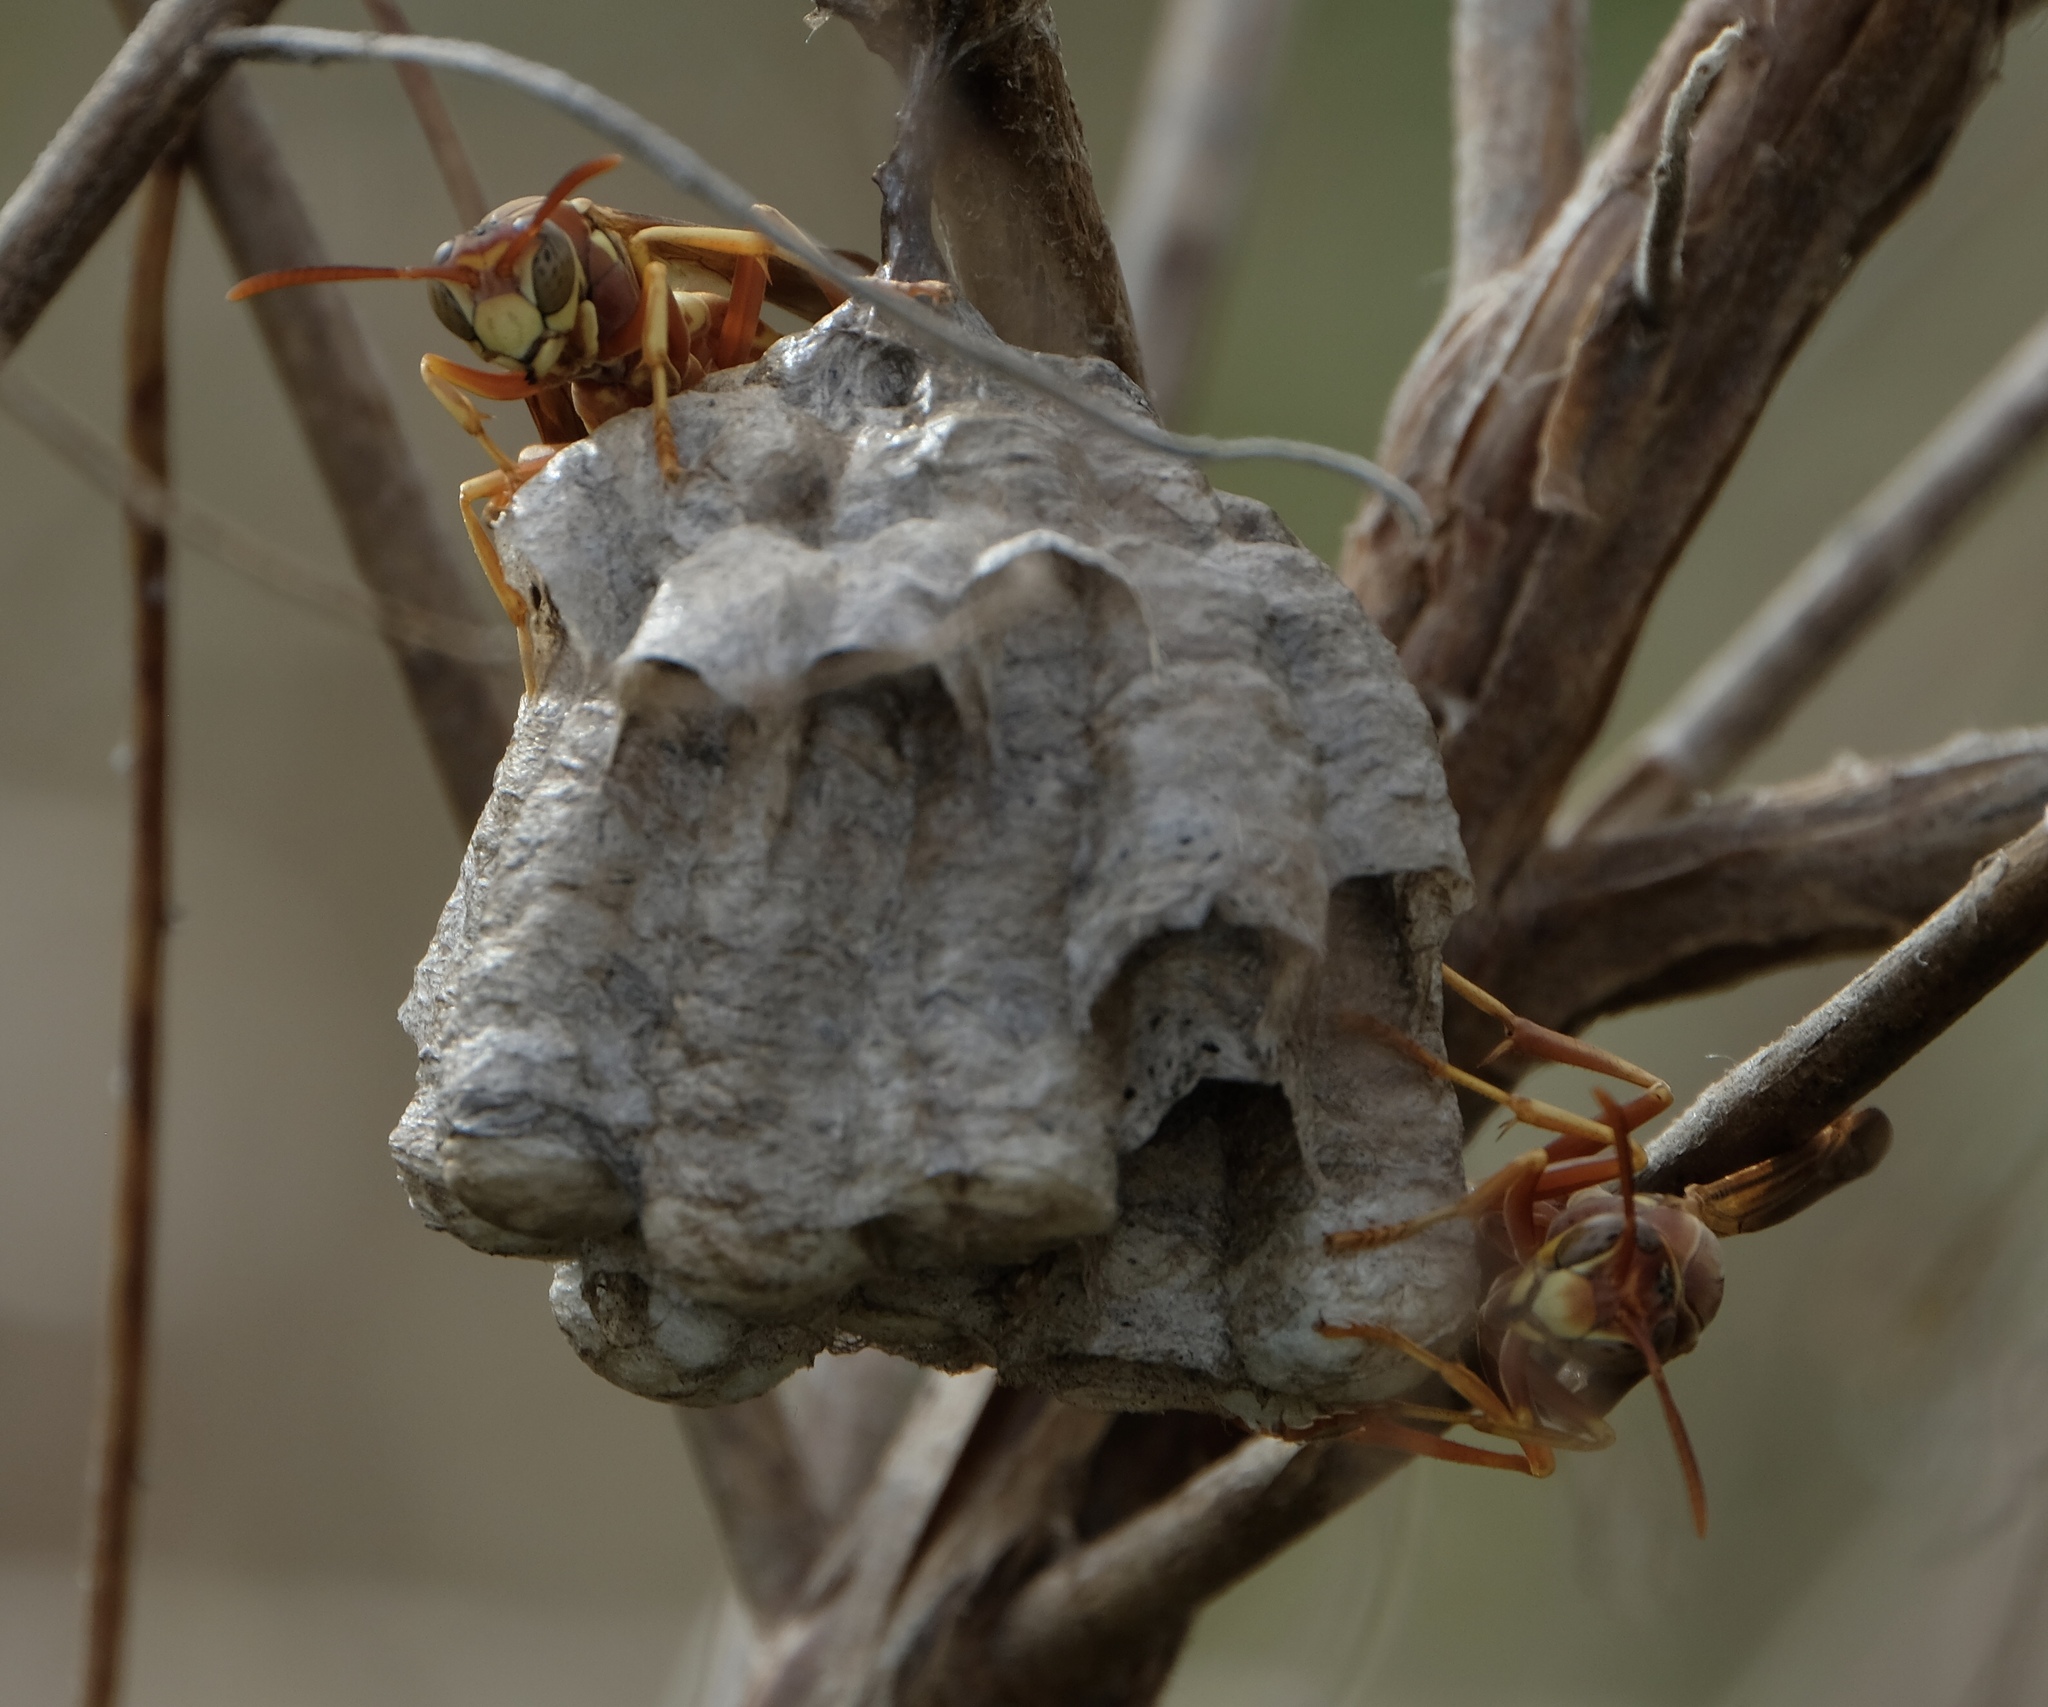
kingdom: Animalia
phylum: Arthropoda
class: Insecta
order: Hymenoptera
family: Vespidae
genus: Fuscopolistes
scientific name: Fuscopolistes
